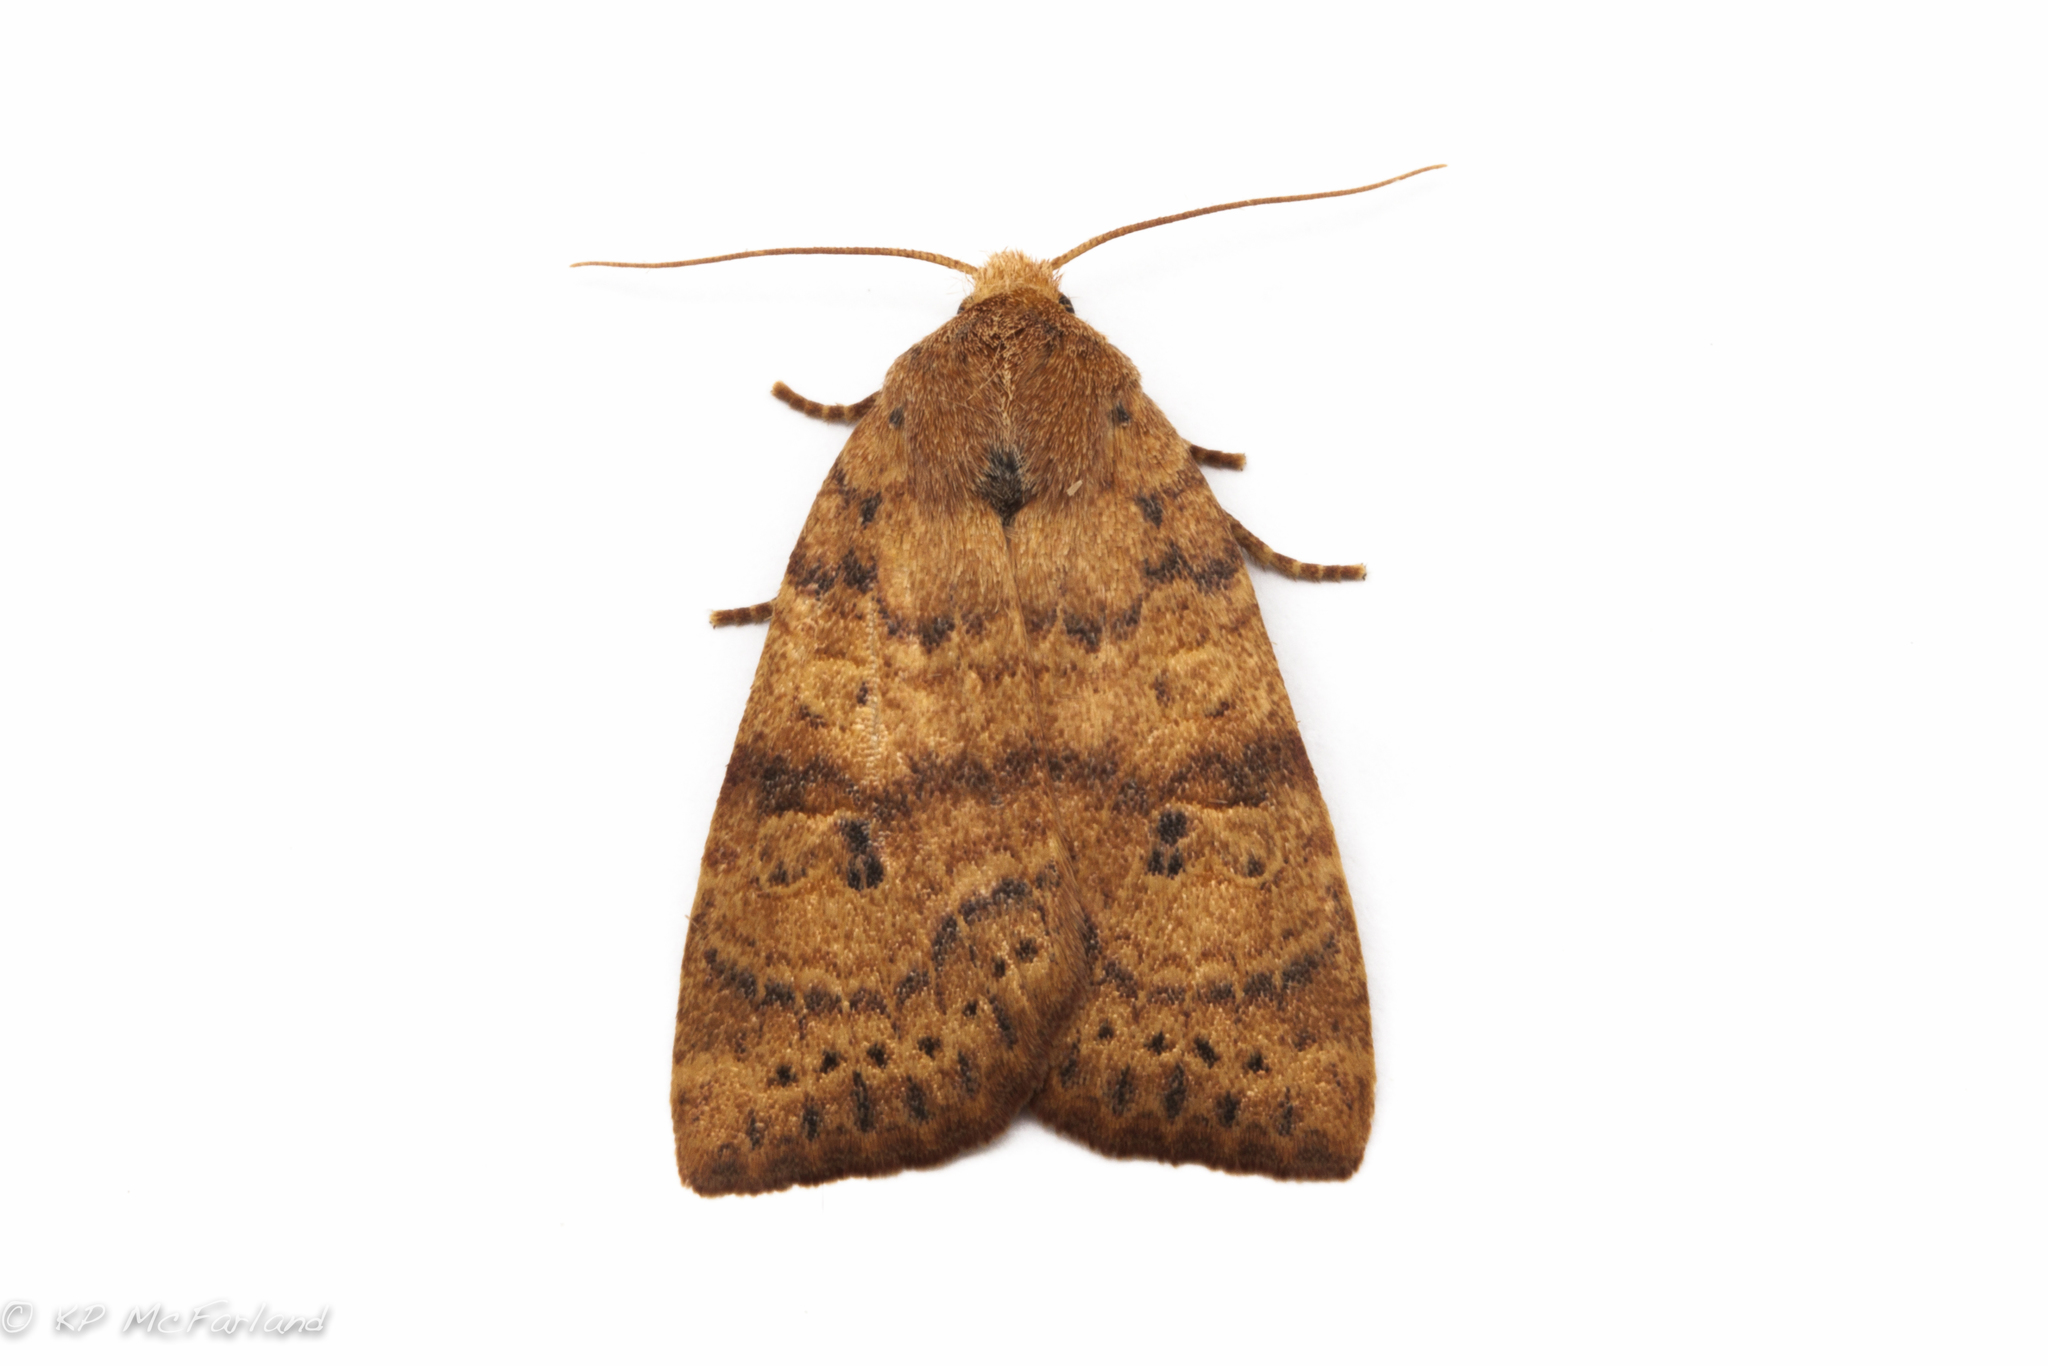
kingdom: Animalia
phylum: Arthropoda
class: Insecta
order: Lepidoptera
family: Noctuidae
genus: Anathix
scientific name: Anathix ralla
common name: Dotted sallow
